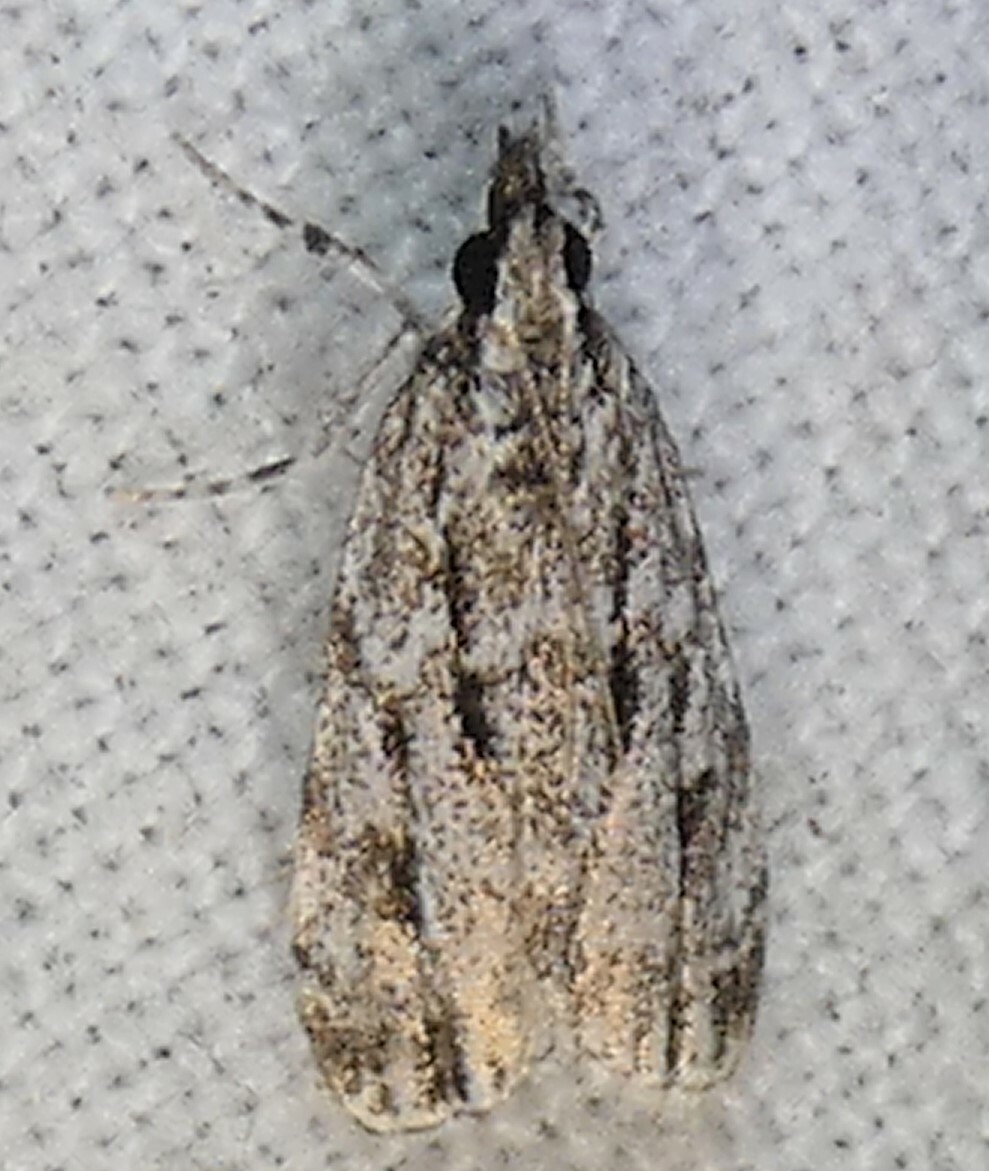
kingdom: Animalia
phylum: Arthropoda
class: Insecta
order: Lepidoptera
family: Crambidae
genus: Eudonia
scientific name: Eudonia strigalis
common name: Striped eudonia moth
